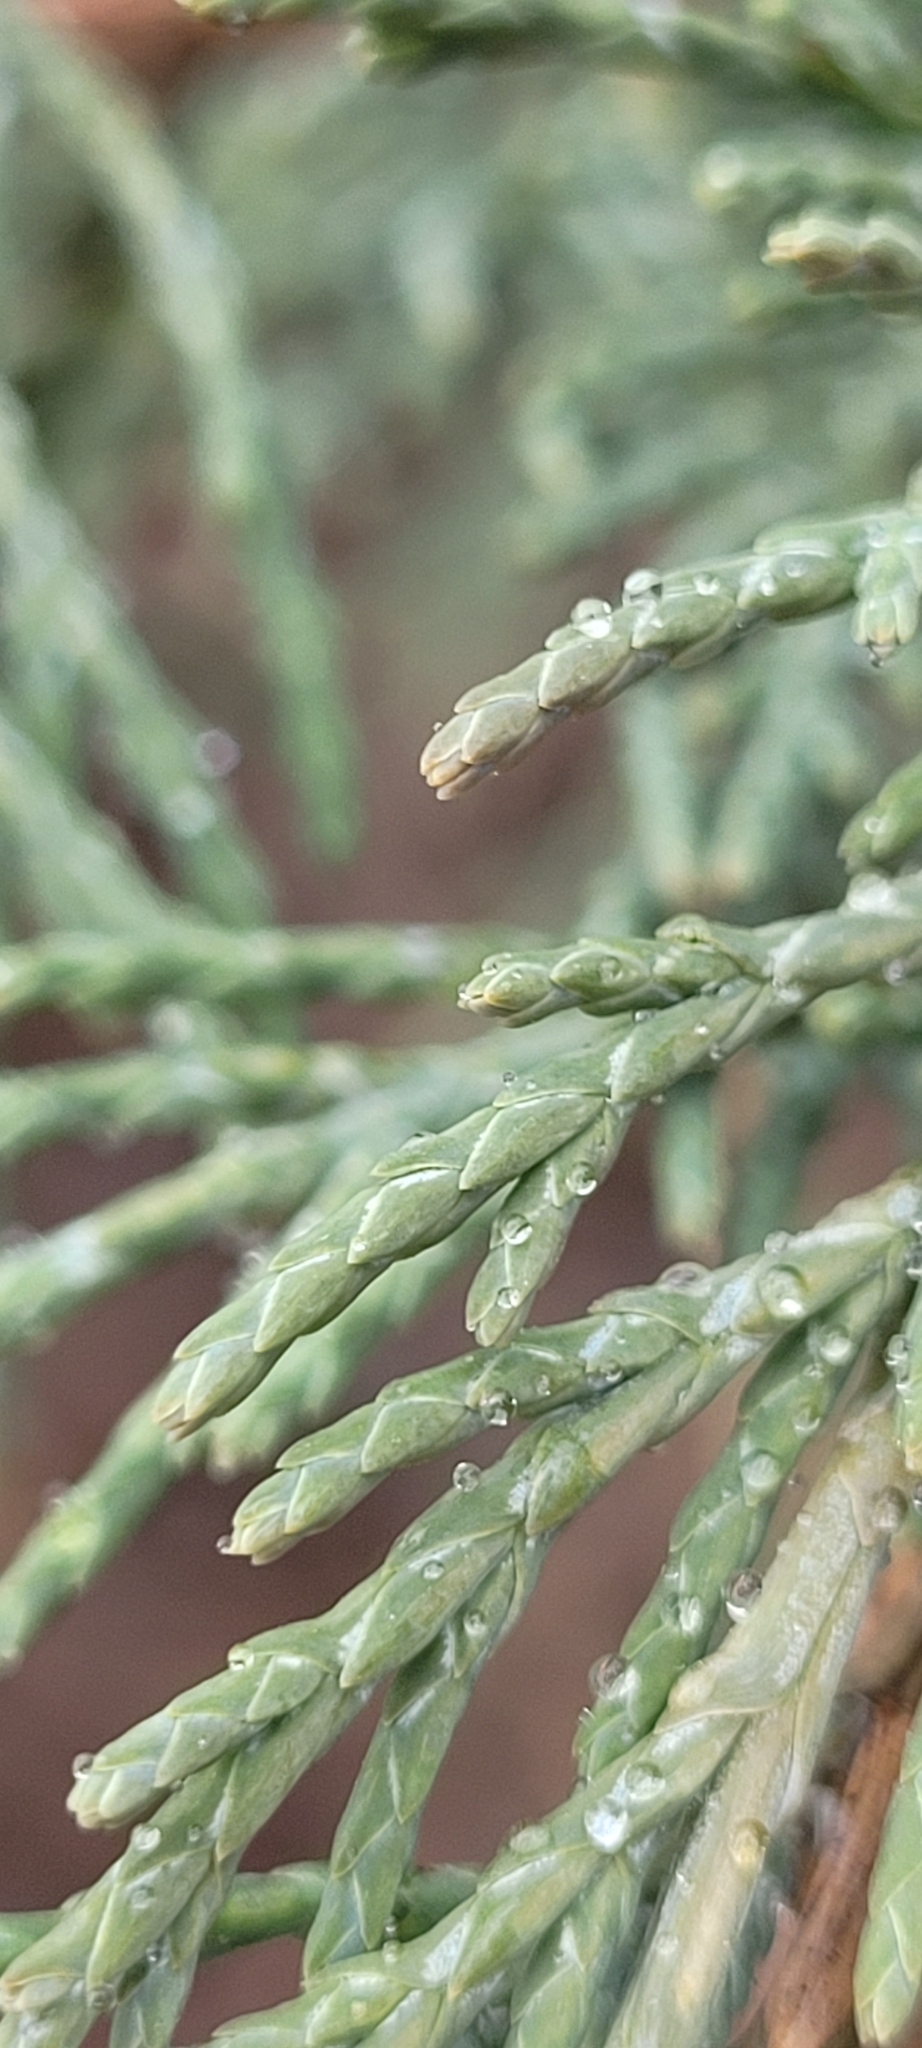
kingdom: Plantae
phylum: Tracheophyta
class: Pinopsida
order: Pinales
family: Cupressaceae
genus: Juniperus
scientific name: Juniperus scopulorum
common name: Rocky mountain juniper
